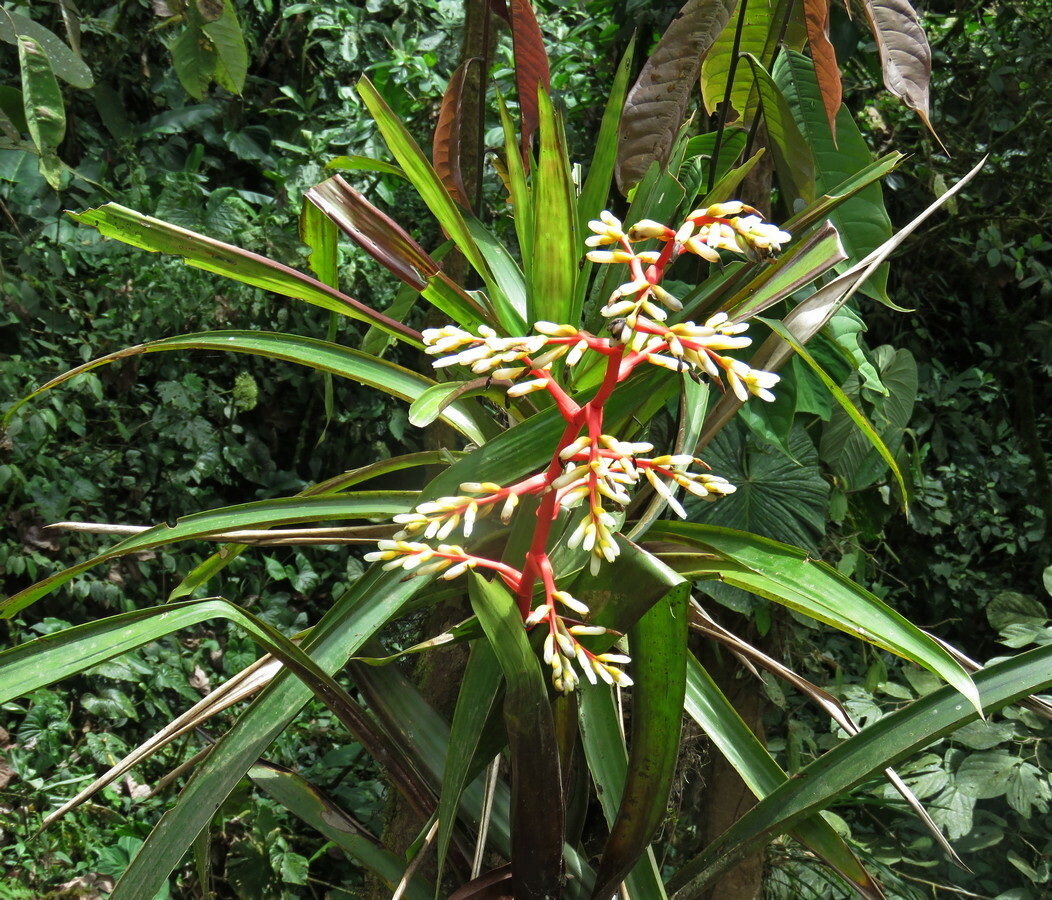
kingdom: Plantae
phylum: Tracheophyta
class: Liliopsida
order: Poales
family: Bromeliaceae
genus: Guzmania
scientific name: Guzmania testudinis
